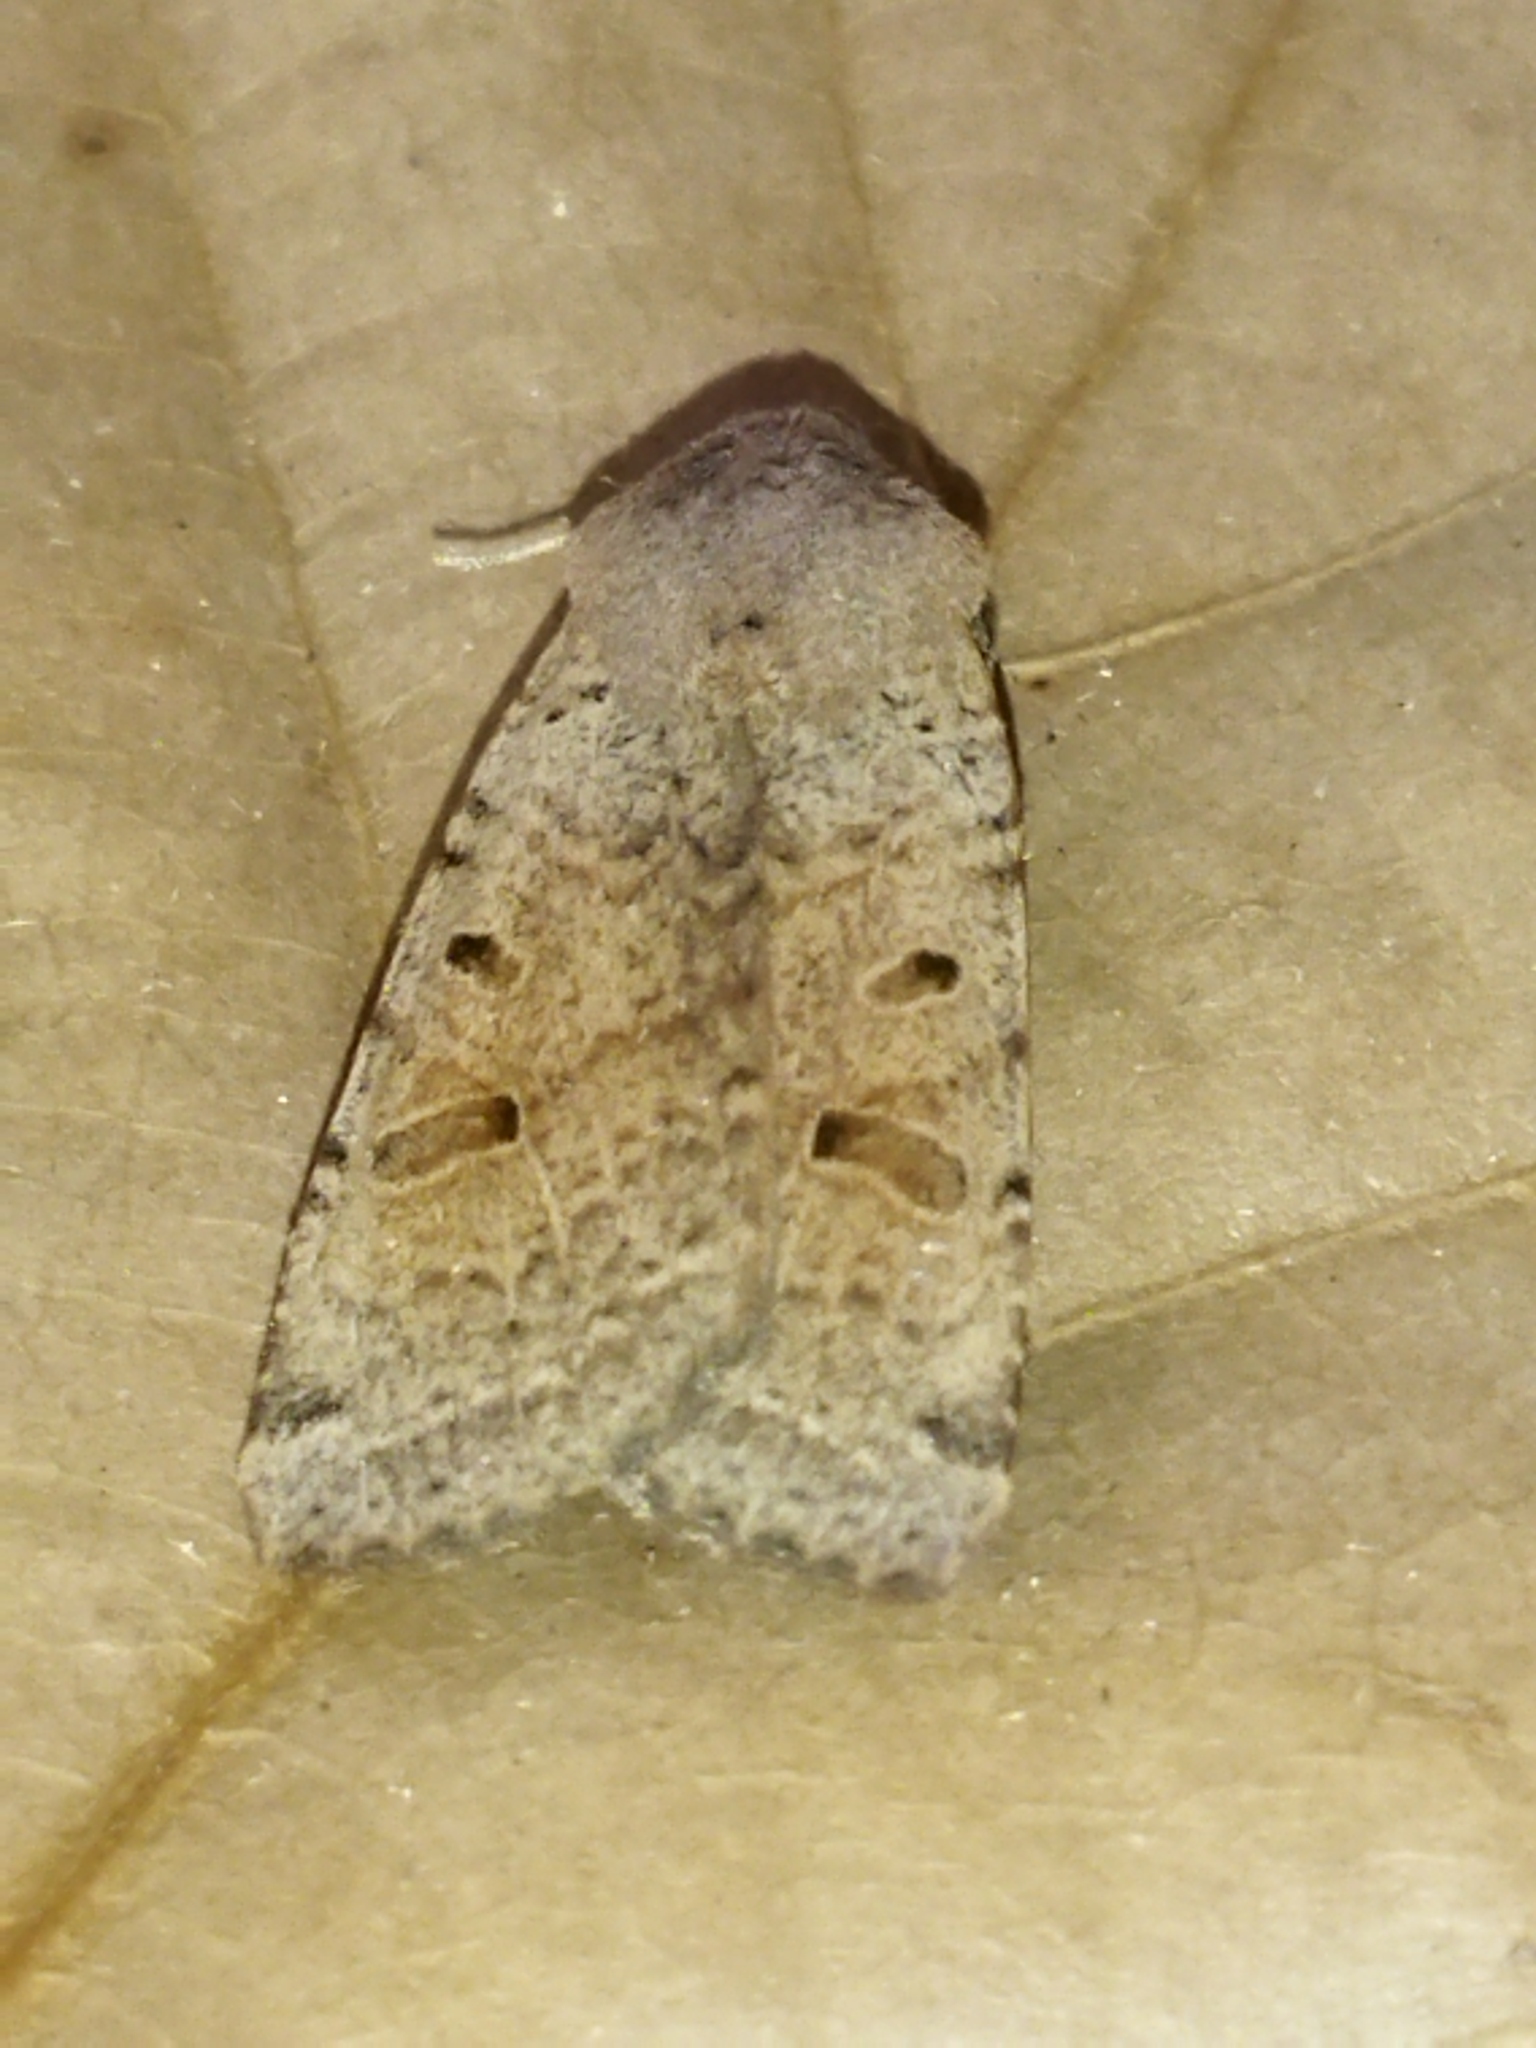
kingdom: Animalia
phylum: Arthropoda
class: Insecta
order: Lepidoptera
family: Noctuidae
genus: Agrochola
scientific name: Agrochola lychnidis
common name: Beaded chestnut
